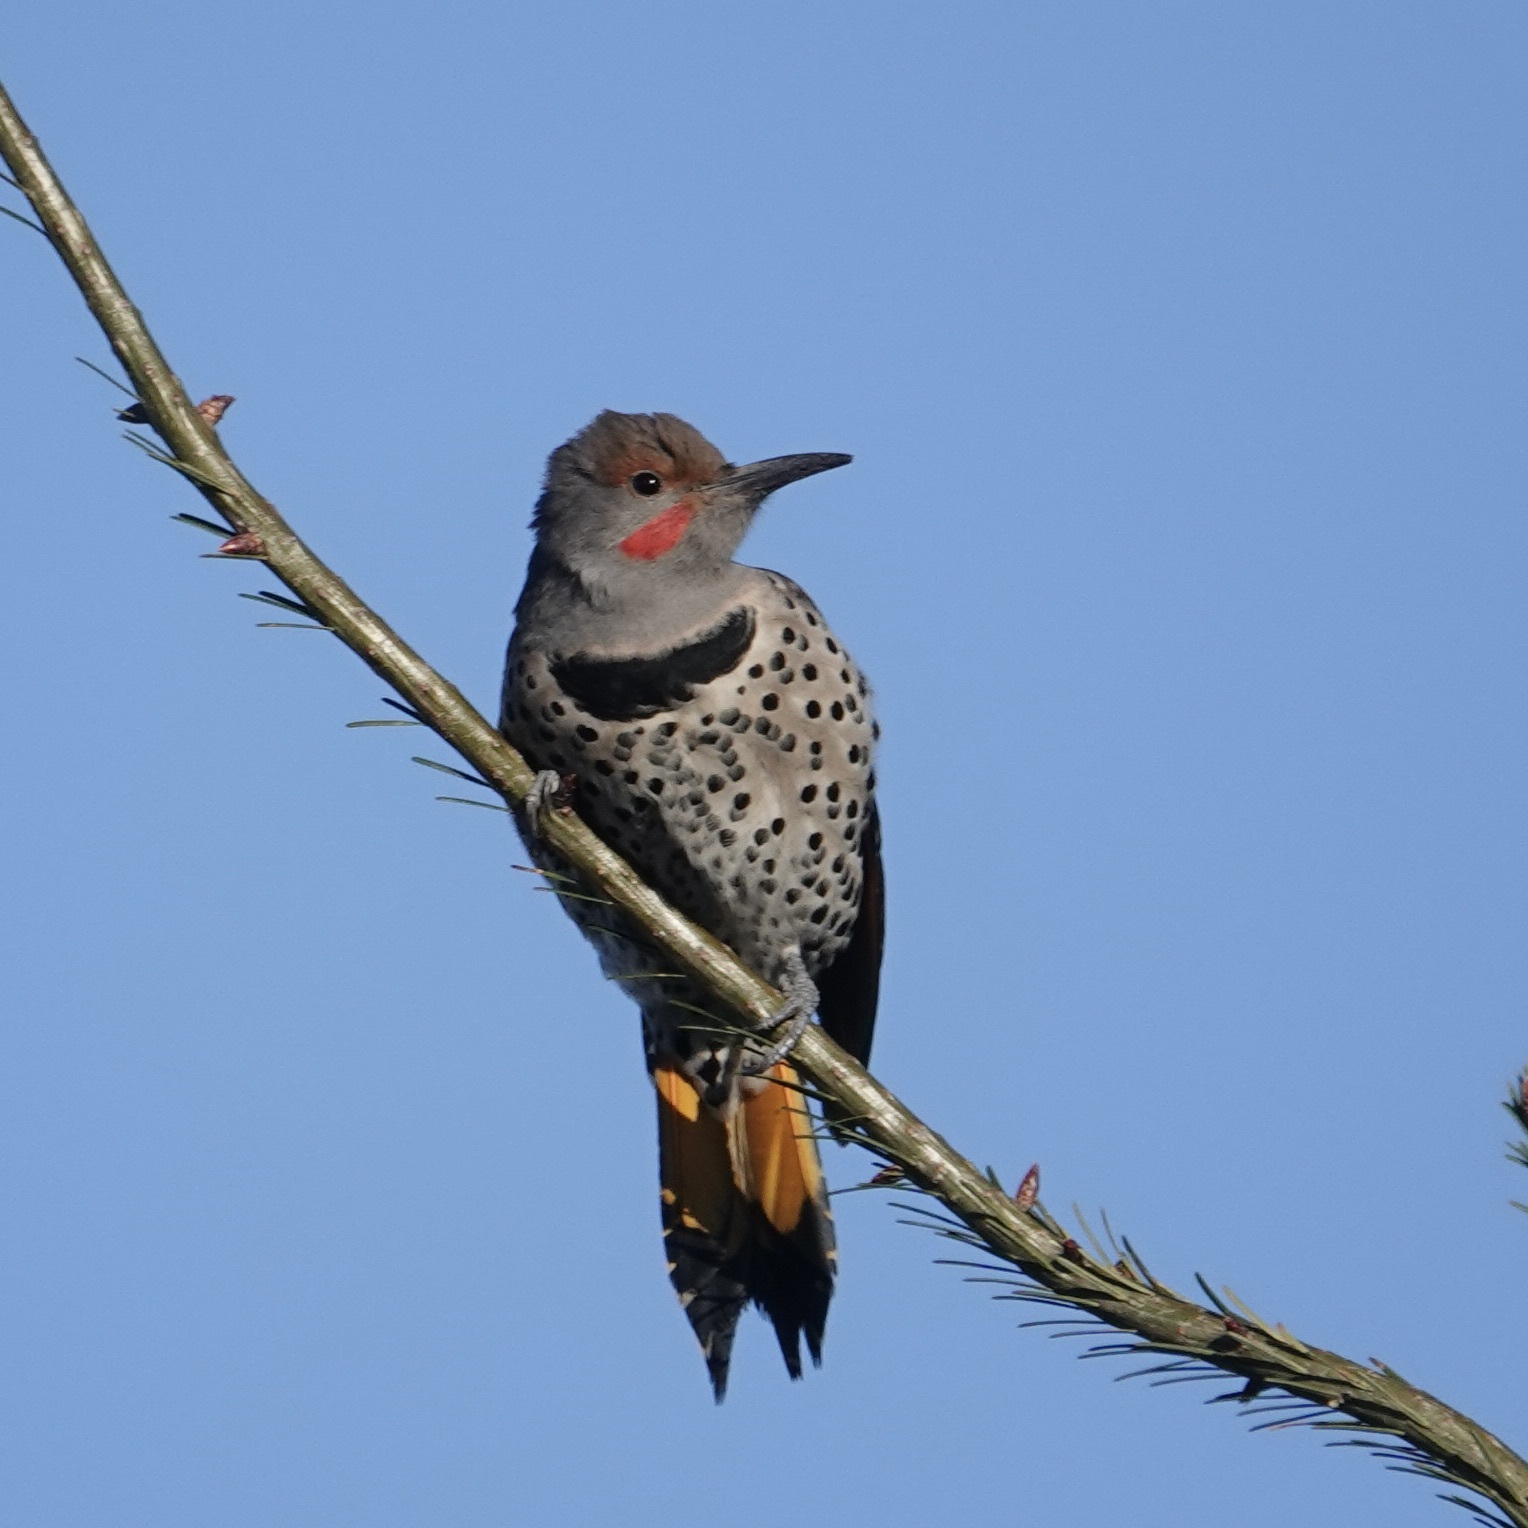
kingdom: Animalia
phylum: Chordata
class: Aves
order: Piciformes
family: Picidae
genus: Colaptes
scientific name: Colaptes auratus
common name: Northern flicker
